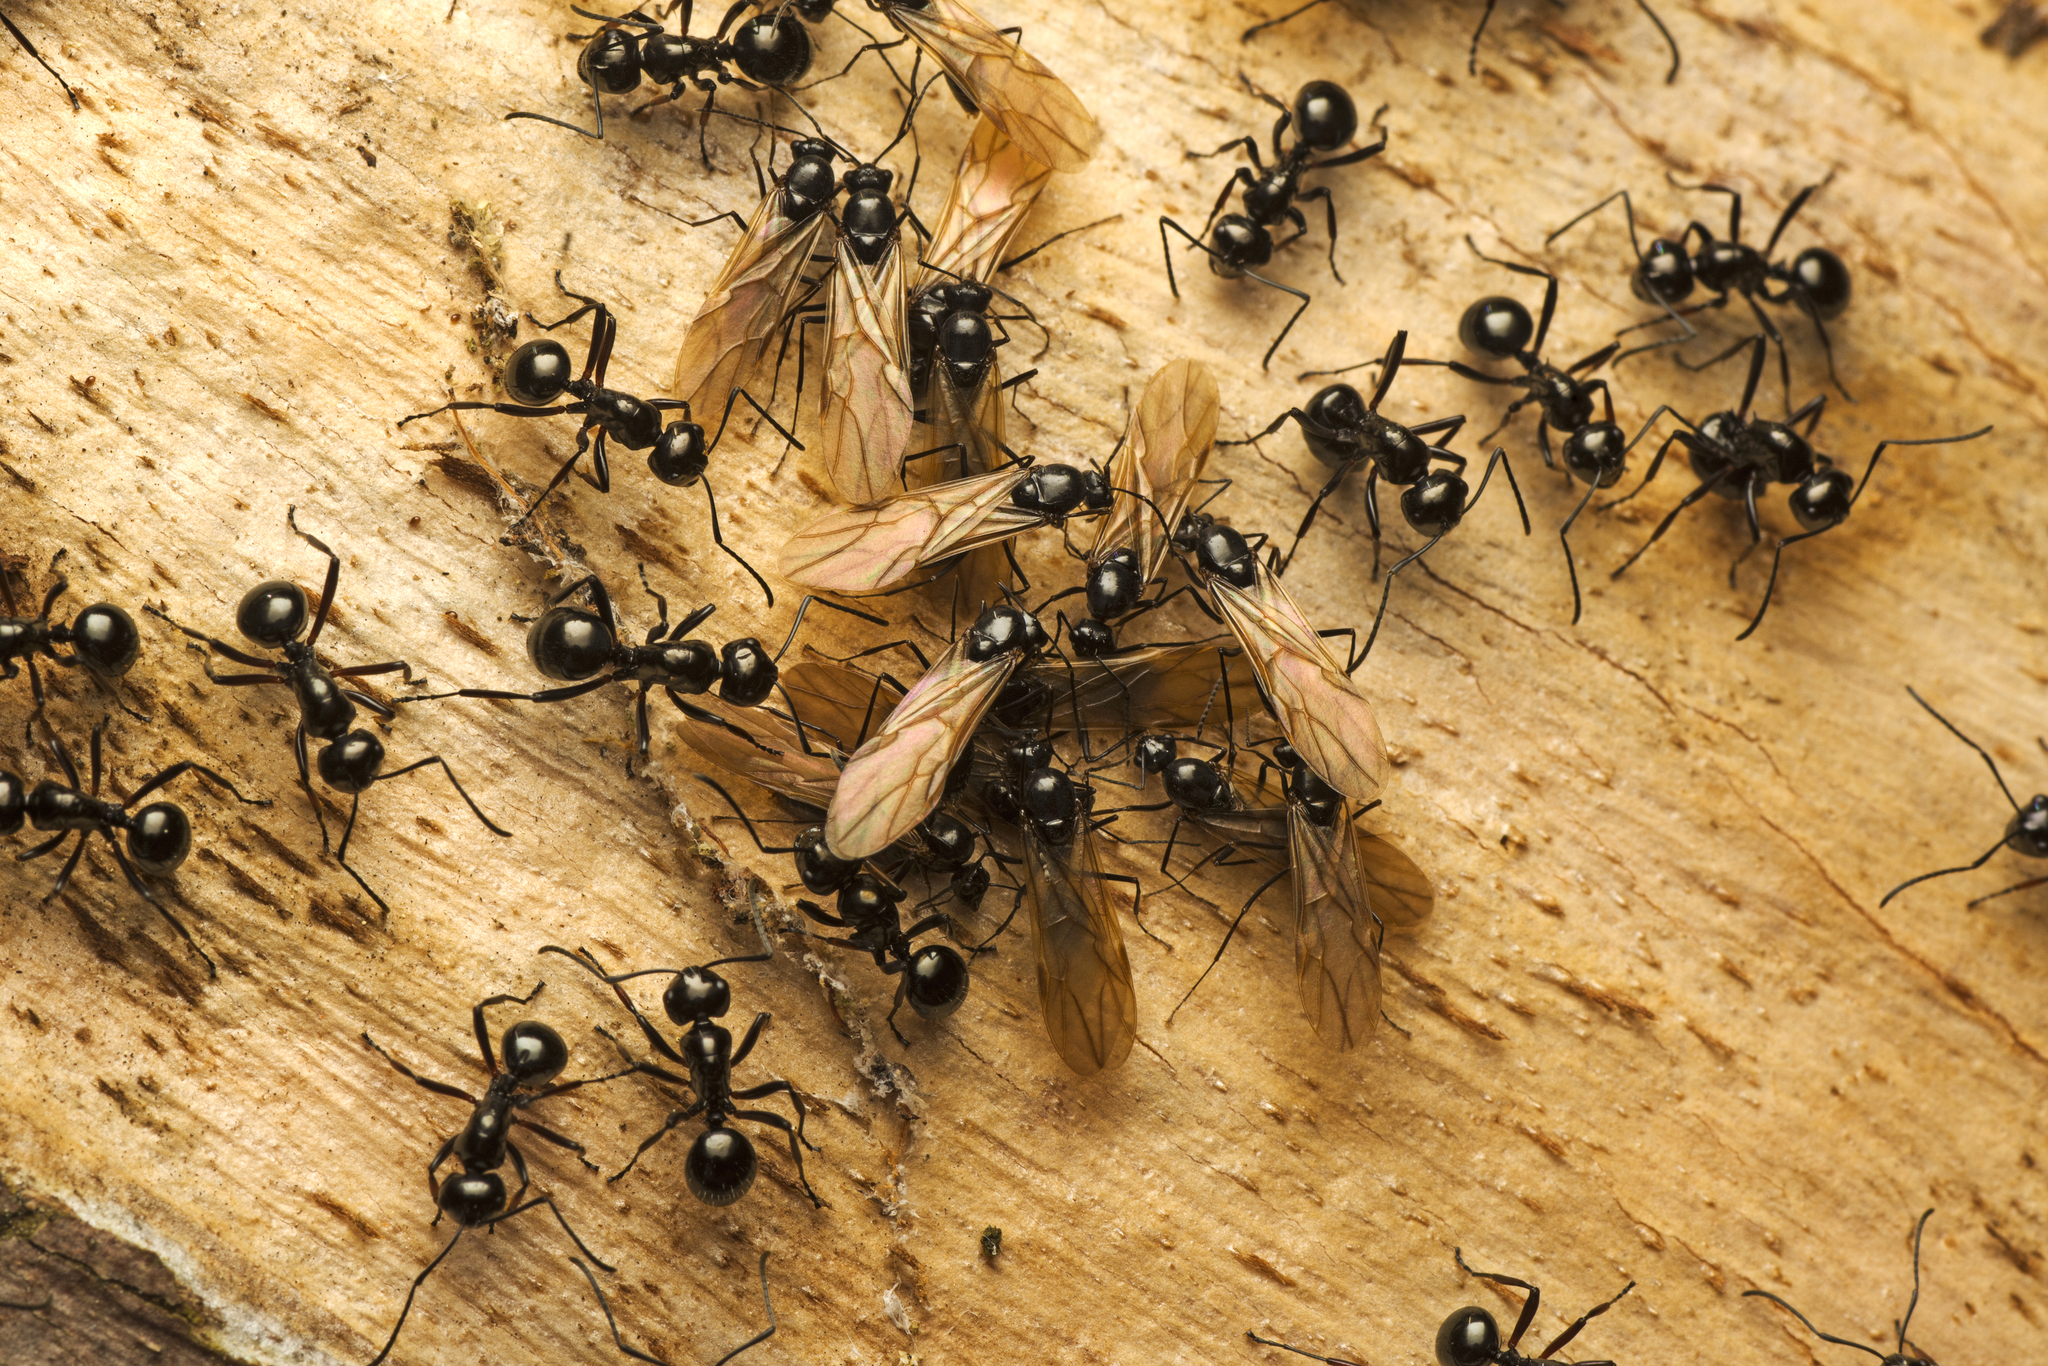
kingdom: Animalia
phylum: Arthropoda
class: Insecta
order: Hymenoptera
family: Formicidae
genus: Polyrhachis
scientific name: Polyrhachis australis
